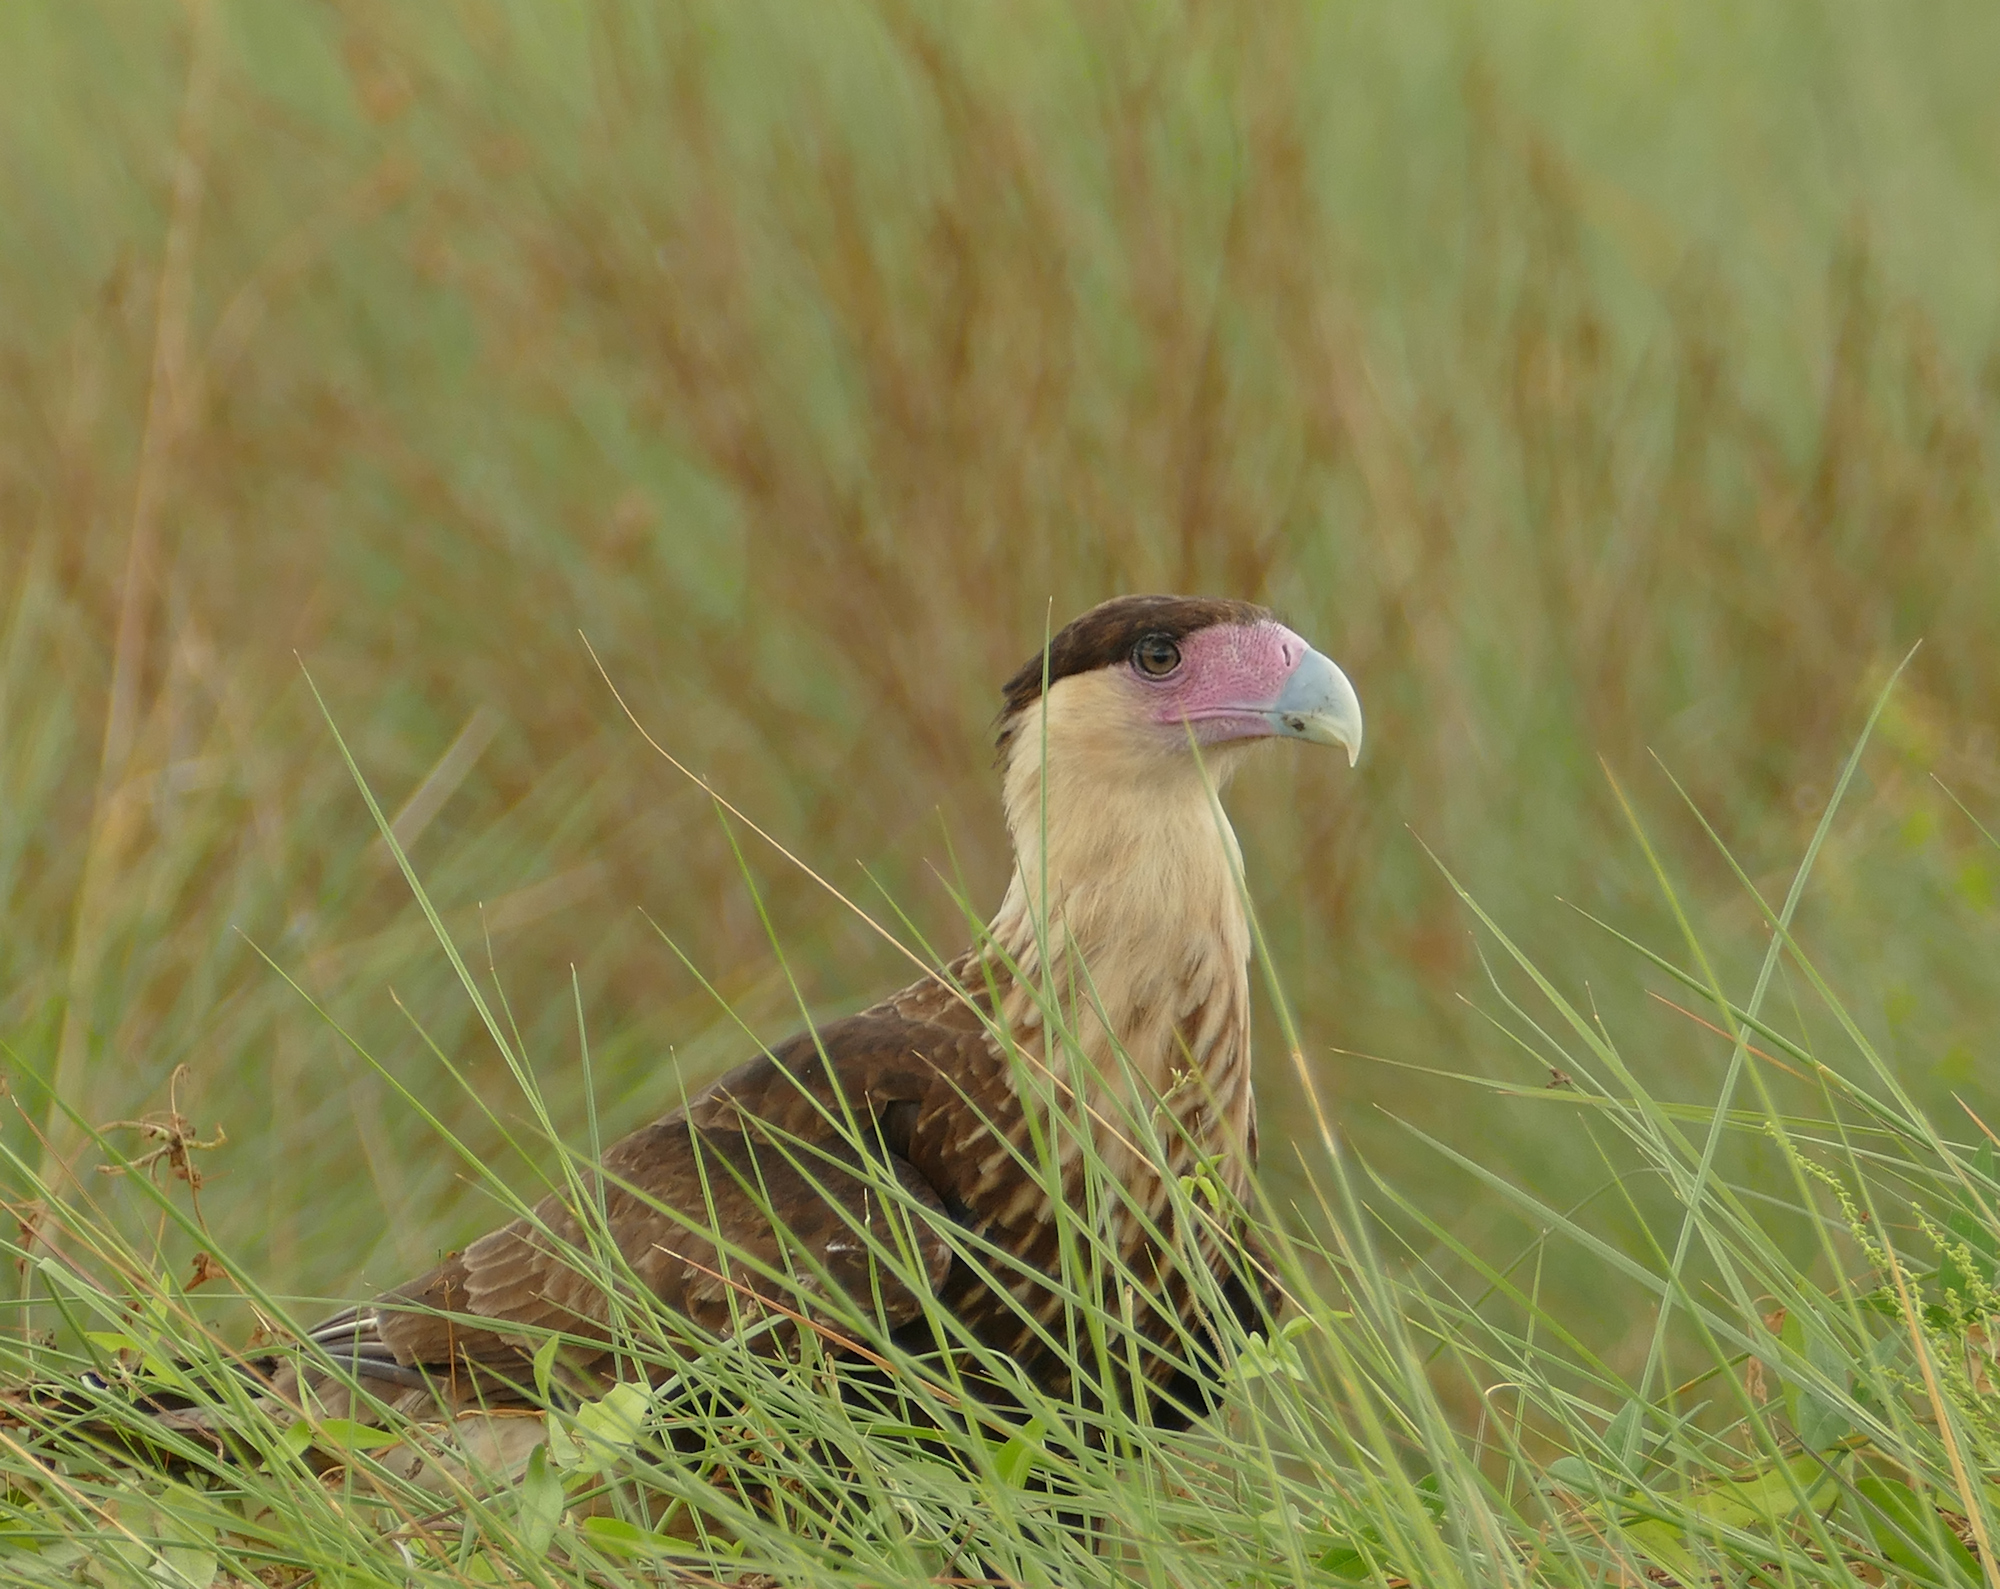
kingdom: Animalia
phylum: Chordata
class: Aves
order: Falconiformes
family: Falconidae
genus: Caracara
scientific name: Caracara plancus
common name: Southern caracara
